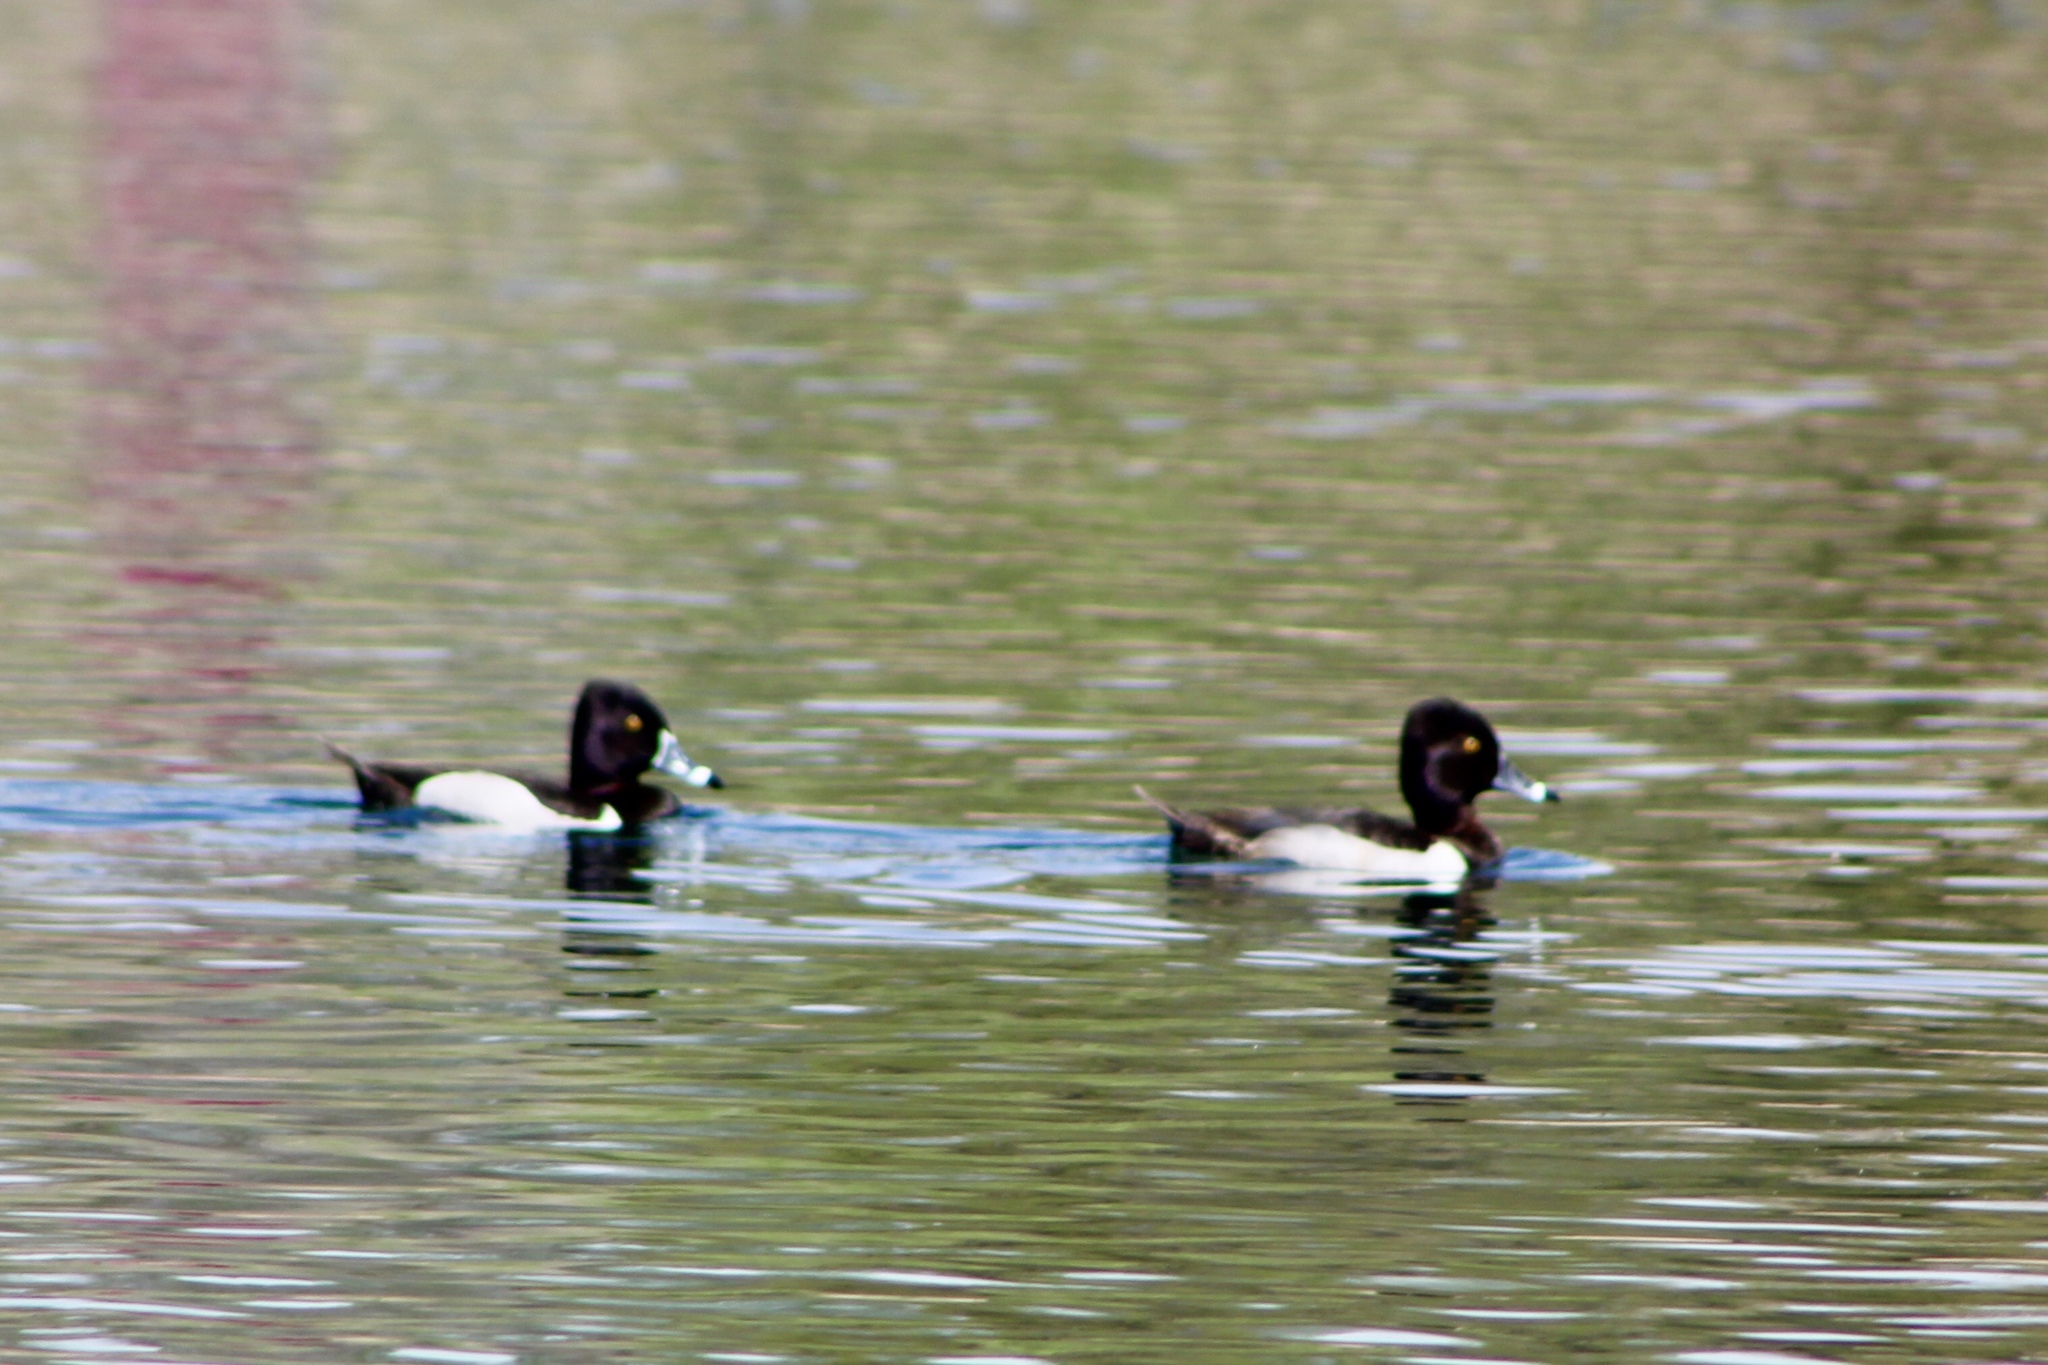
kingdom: Animalia
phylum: Chordata
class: Aves
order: Anseriformes
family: Anatidae
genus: Aythya
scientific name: Aythya collaris
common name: Ring-necked duck
